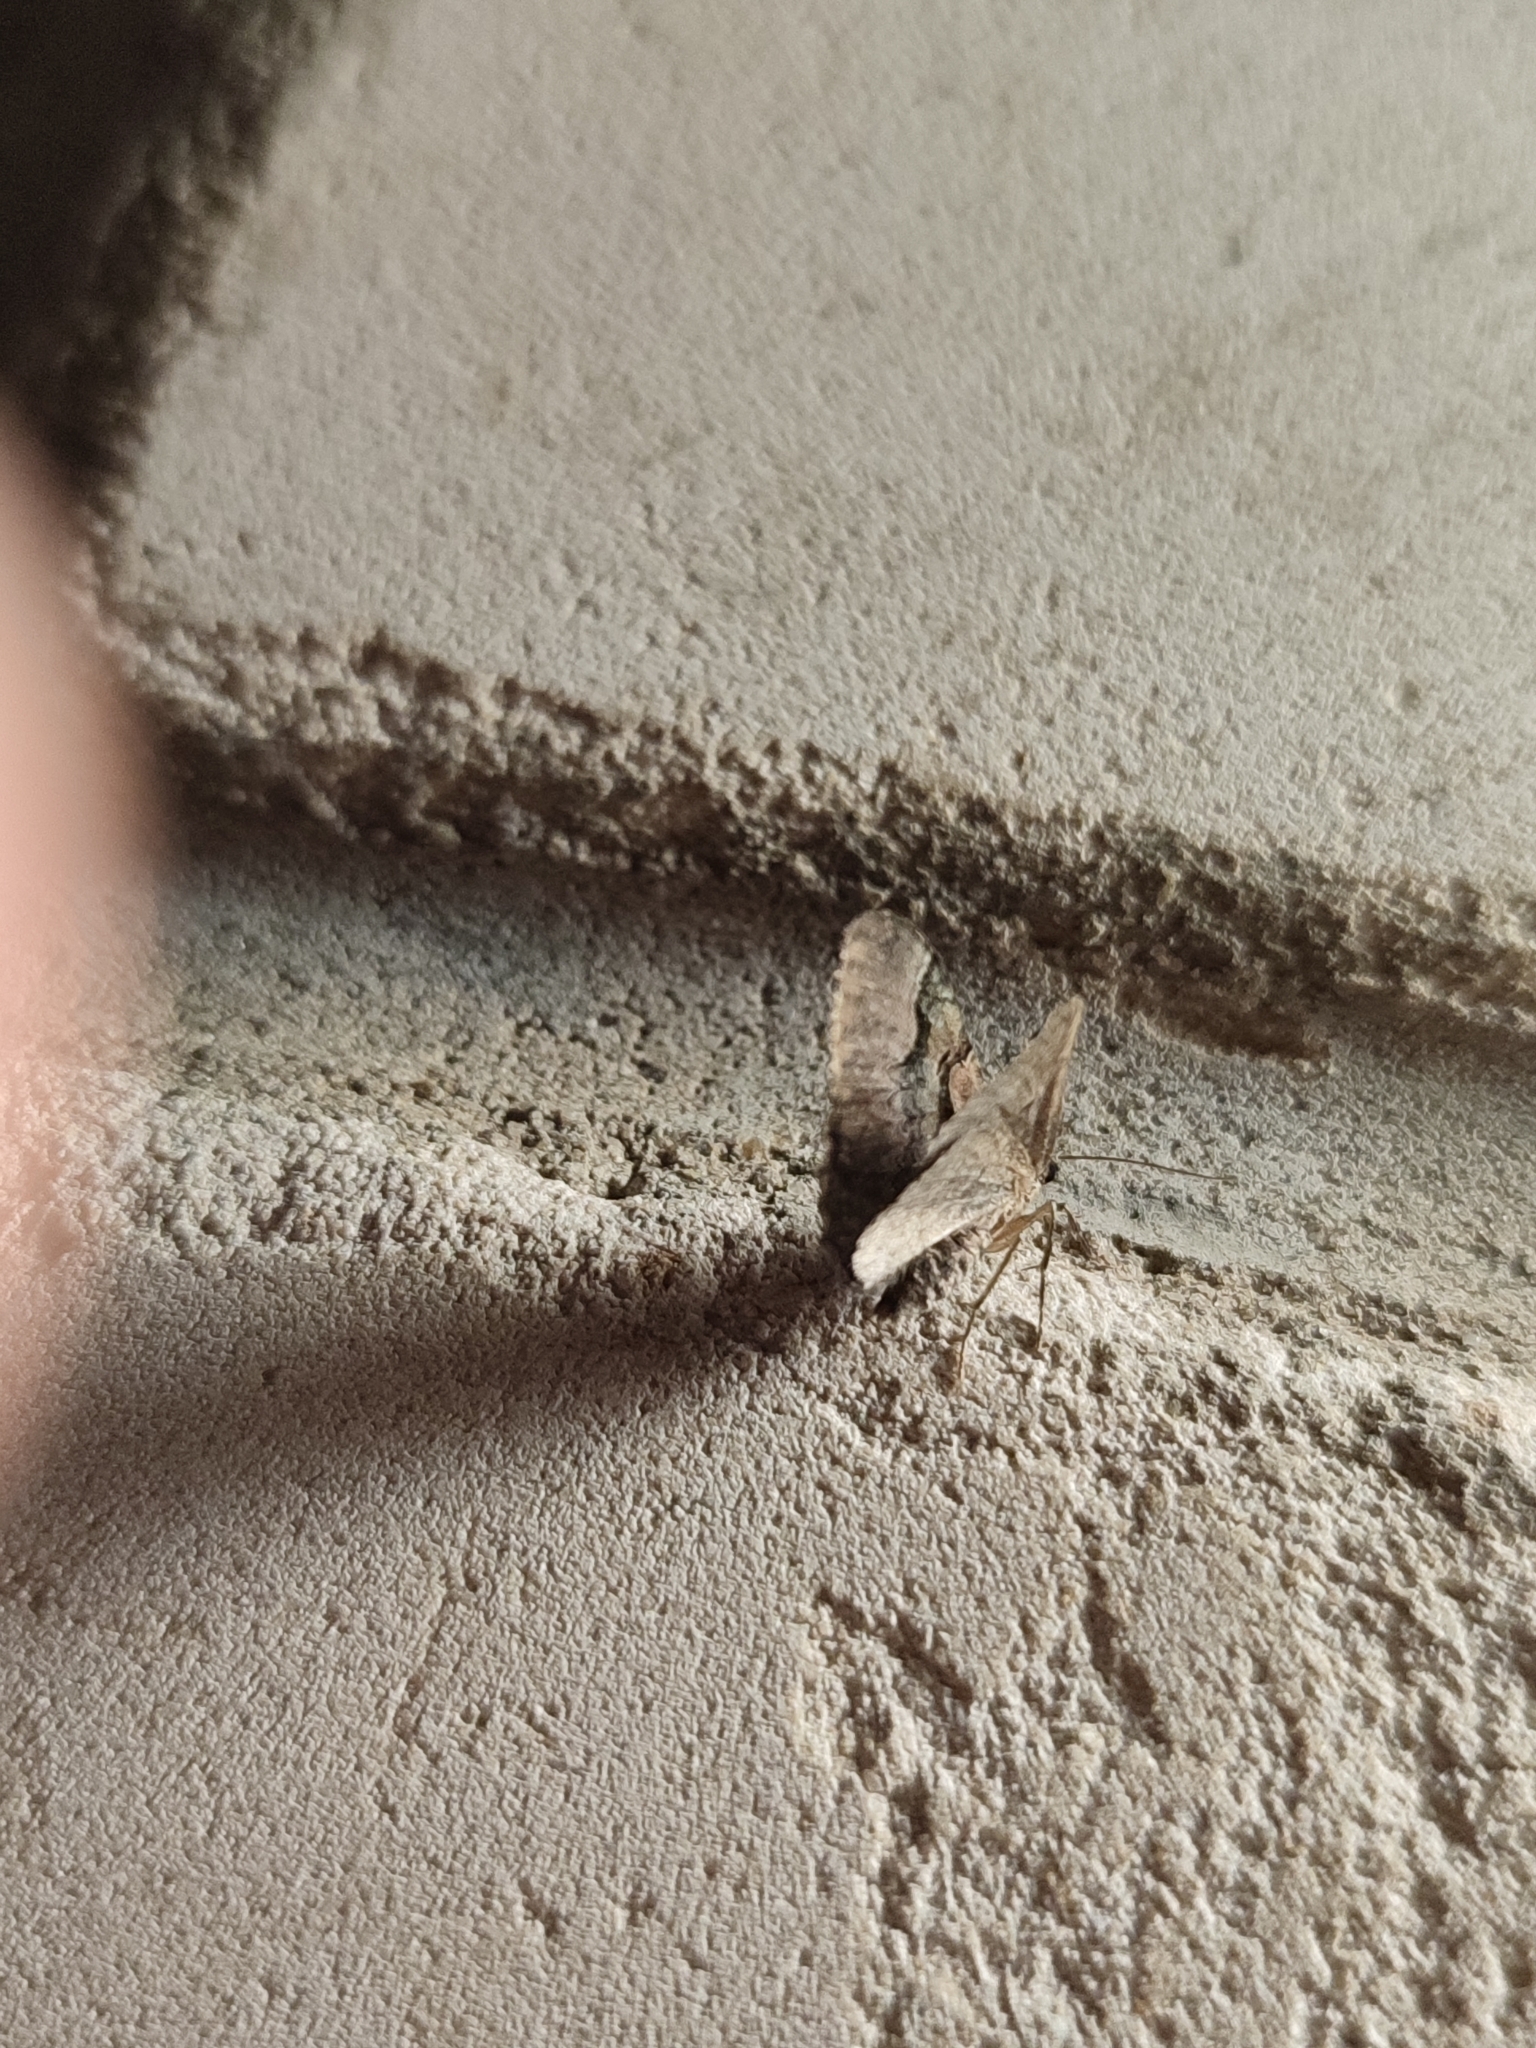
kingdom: Animalia
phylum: Arthropoda
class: Insecta
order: Lepidoptera
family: Geometridae
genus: Catarhoe
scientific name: Catarhoe rubidata
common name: Ruddy carpet
